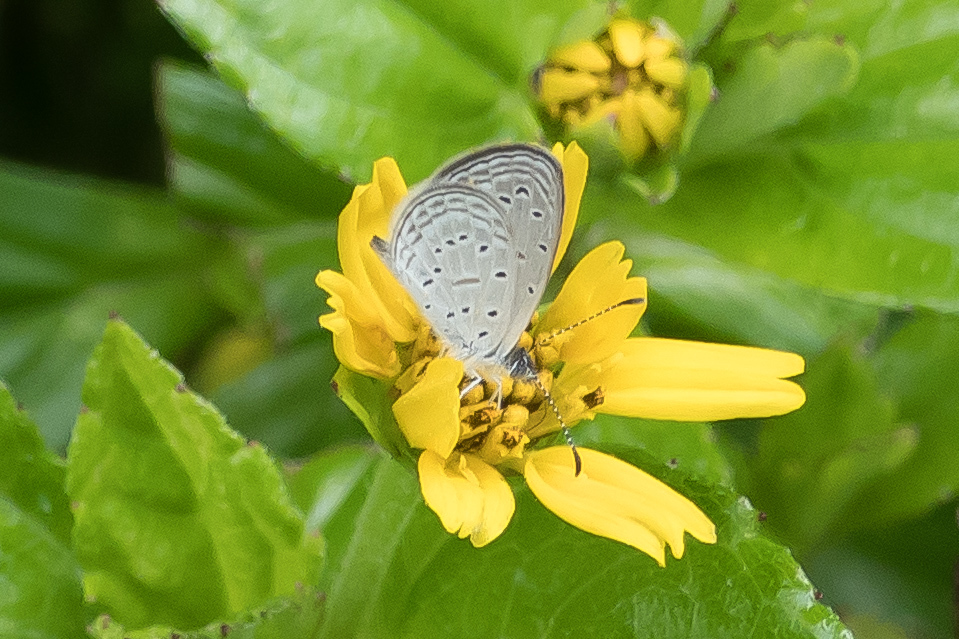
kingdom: Animalia
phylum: Arthropoda
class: Insecta
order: Lepidoptera
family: Lycaenidae
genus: Zizula
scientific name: Zizula hylax
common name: Gaika blue
